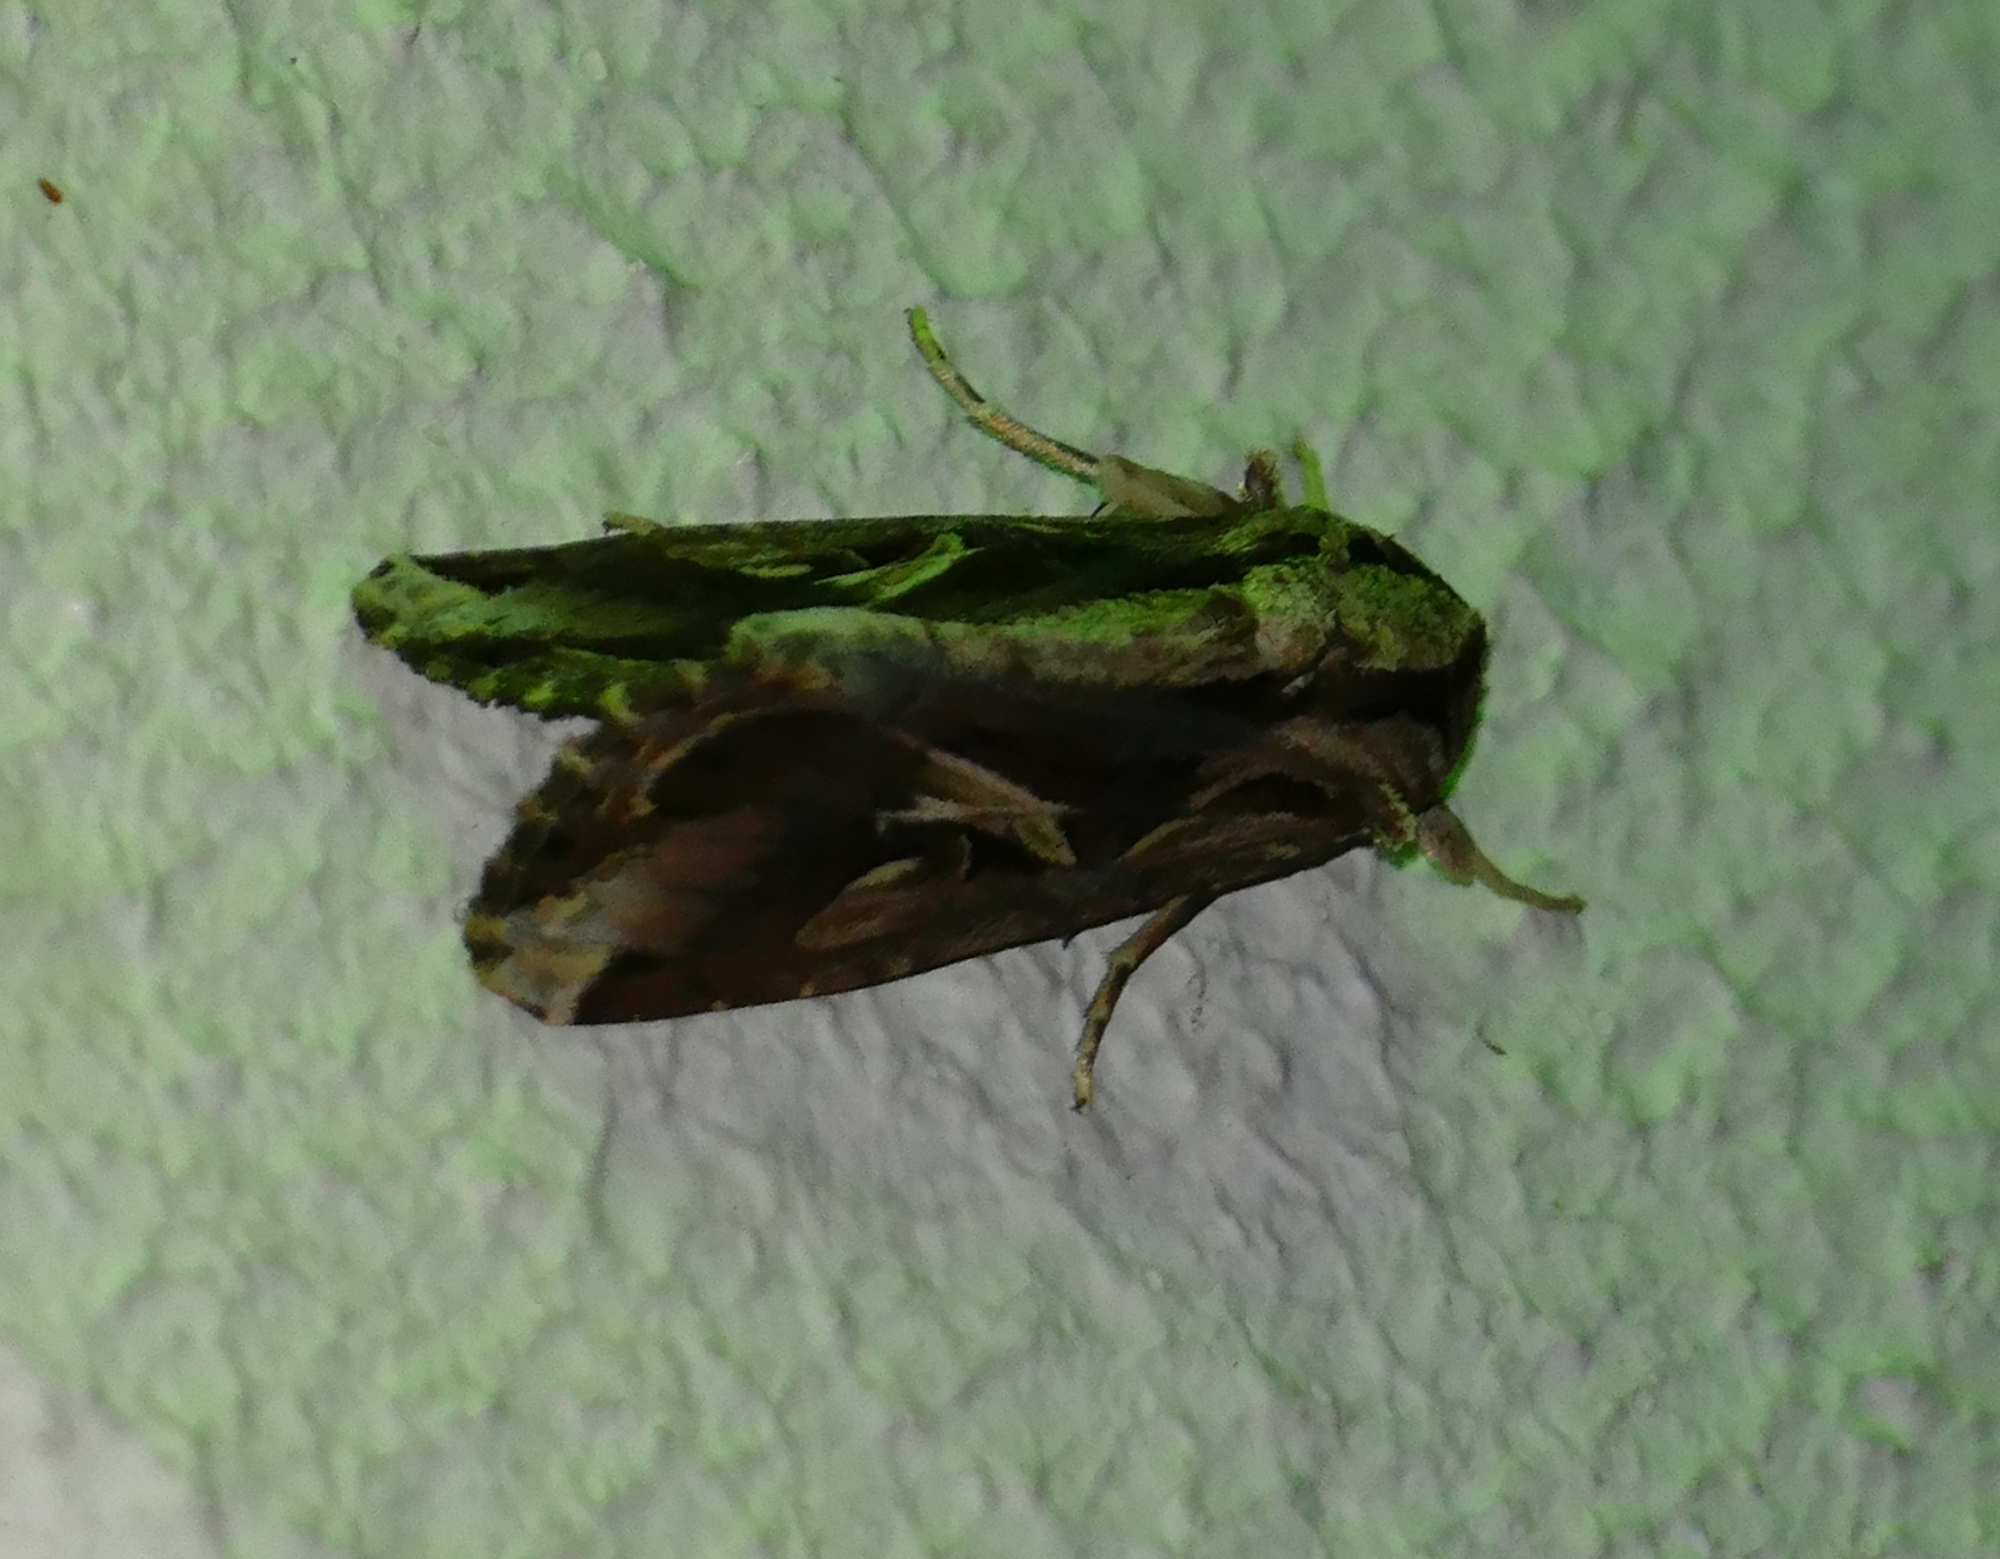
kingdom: Animalia
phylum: Arthropoda
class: Insecta
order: Lepidoptera
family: Noctuidae
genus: Spodoptera
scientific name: Spodoptera dolichos
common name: Sweetpotato armyworm
